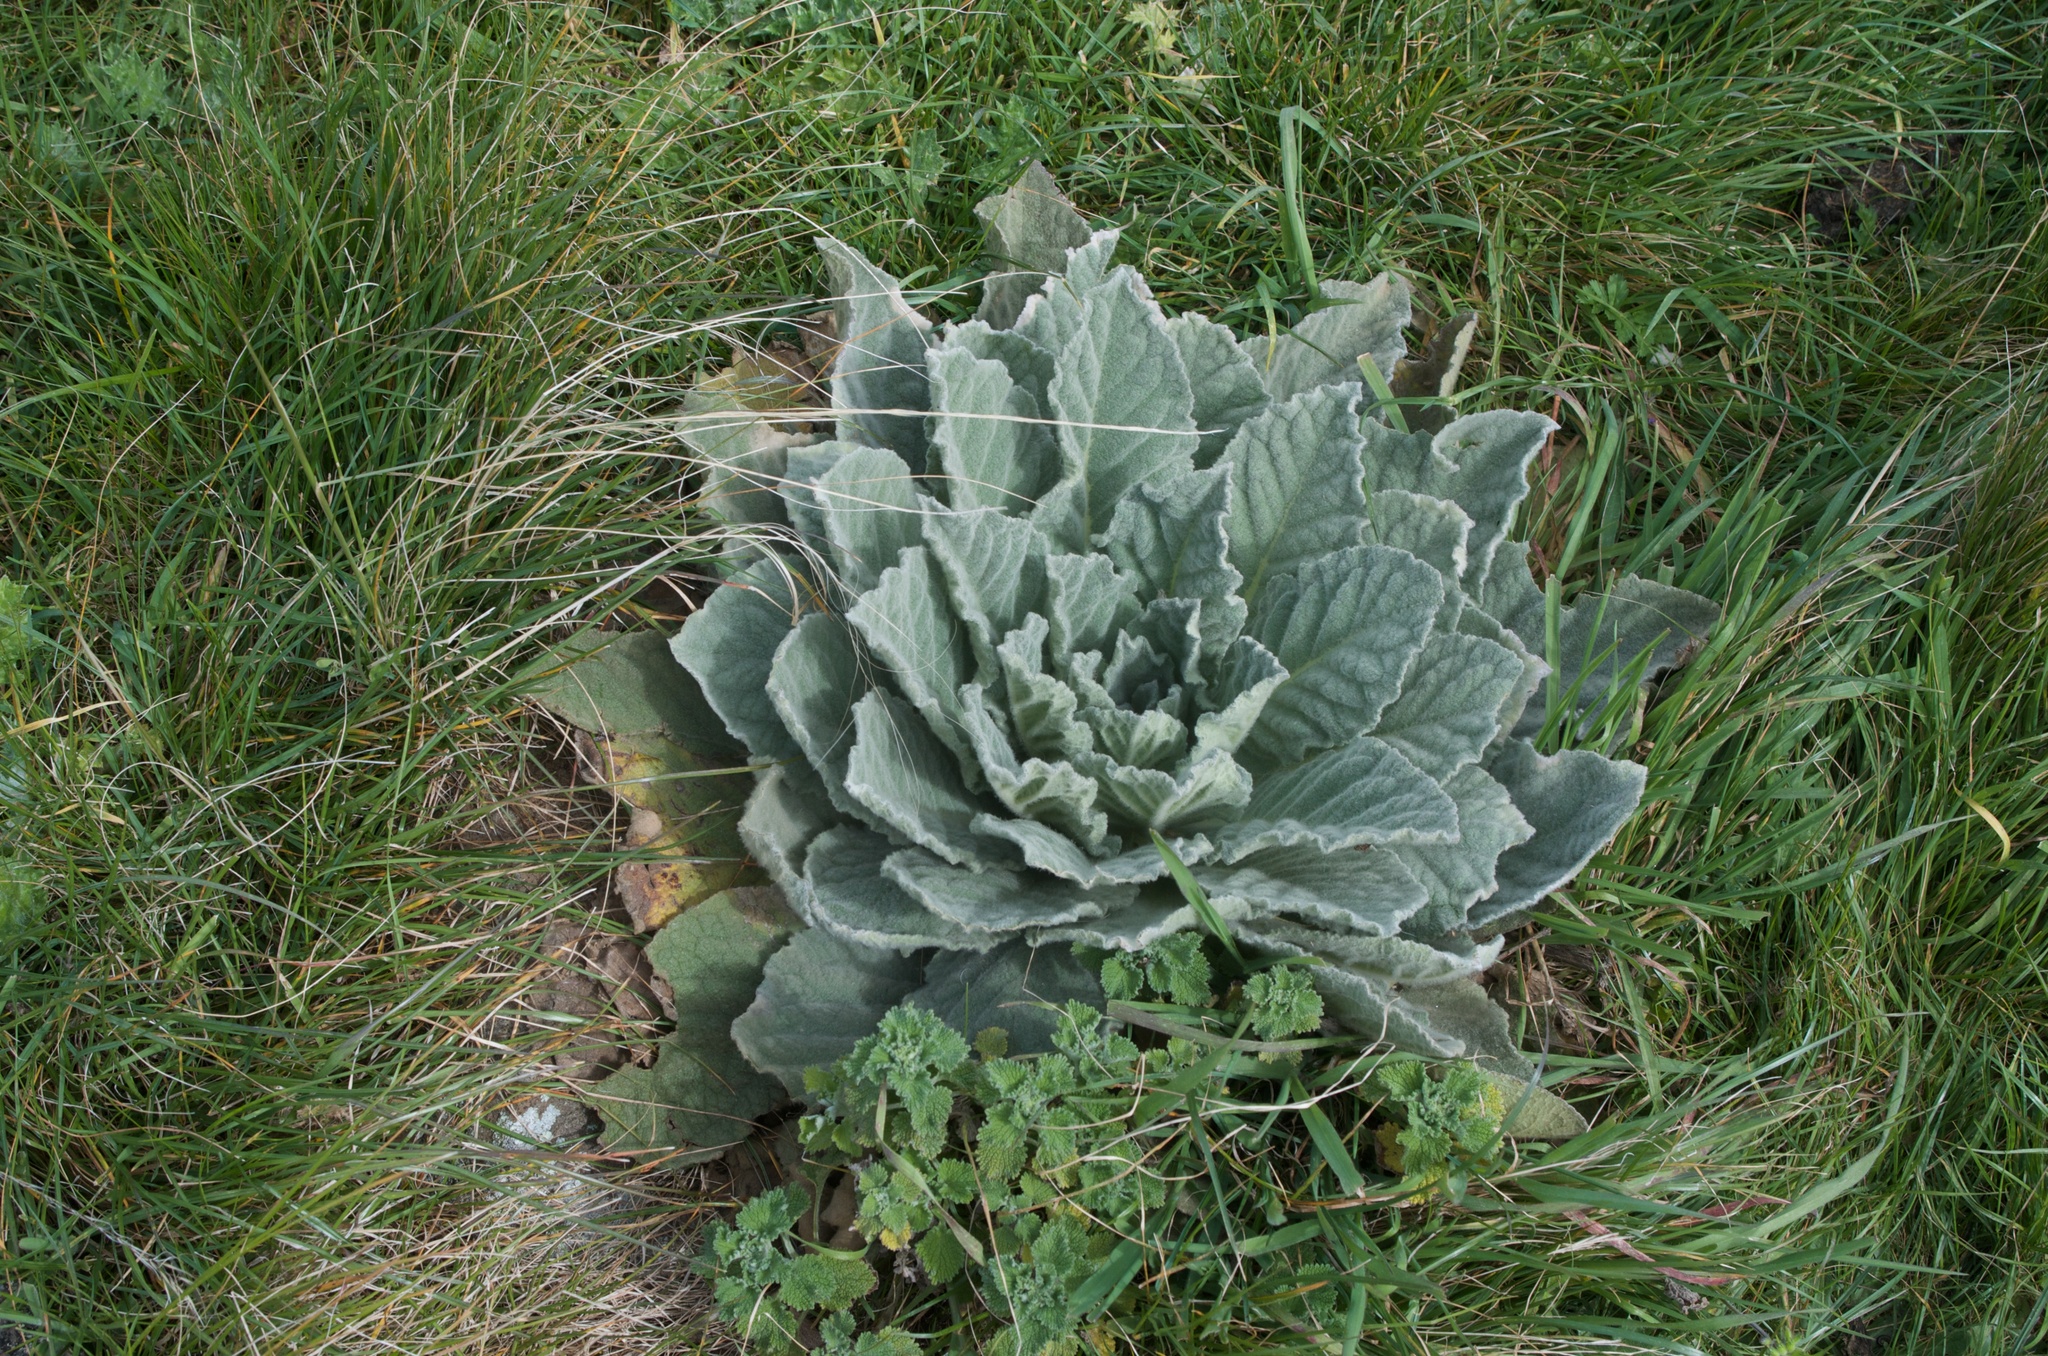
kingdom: Plantae
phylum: Tracheophyta
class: Magnoliopsida
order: Lamiales
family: Scrophulariaceae
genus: Verbascum
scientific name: Verbascum thapsus
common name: Common mullein
